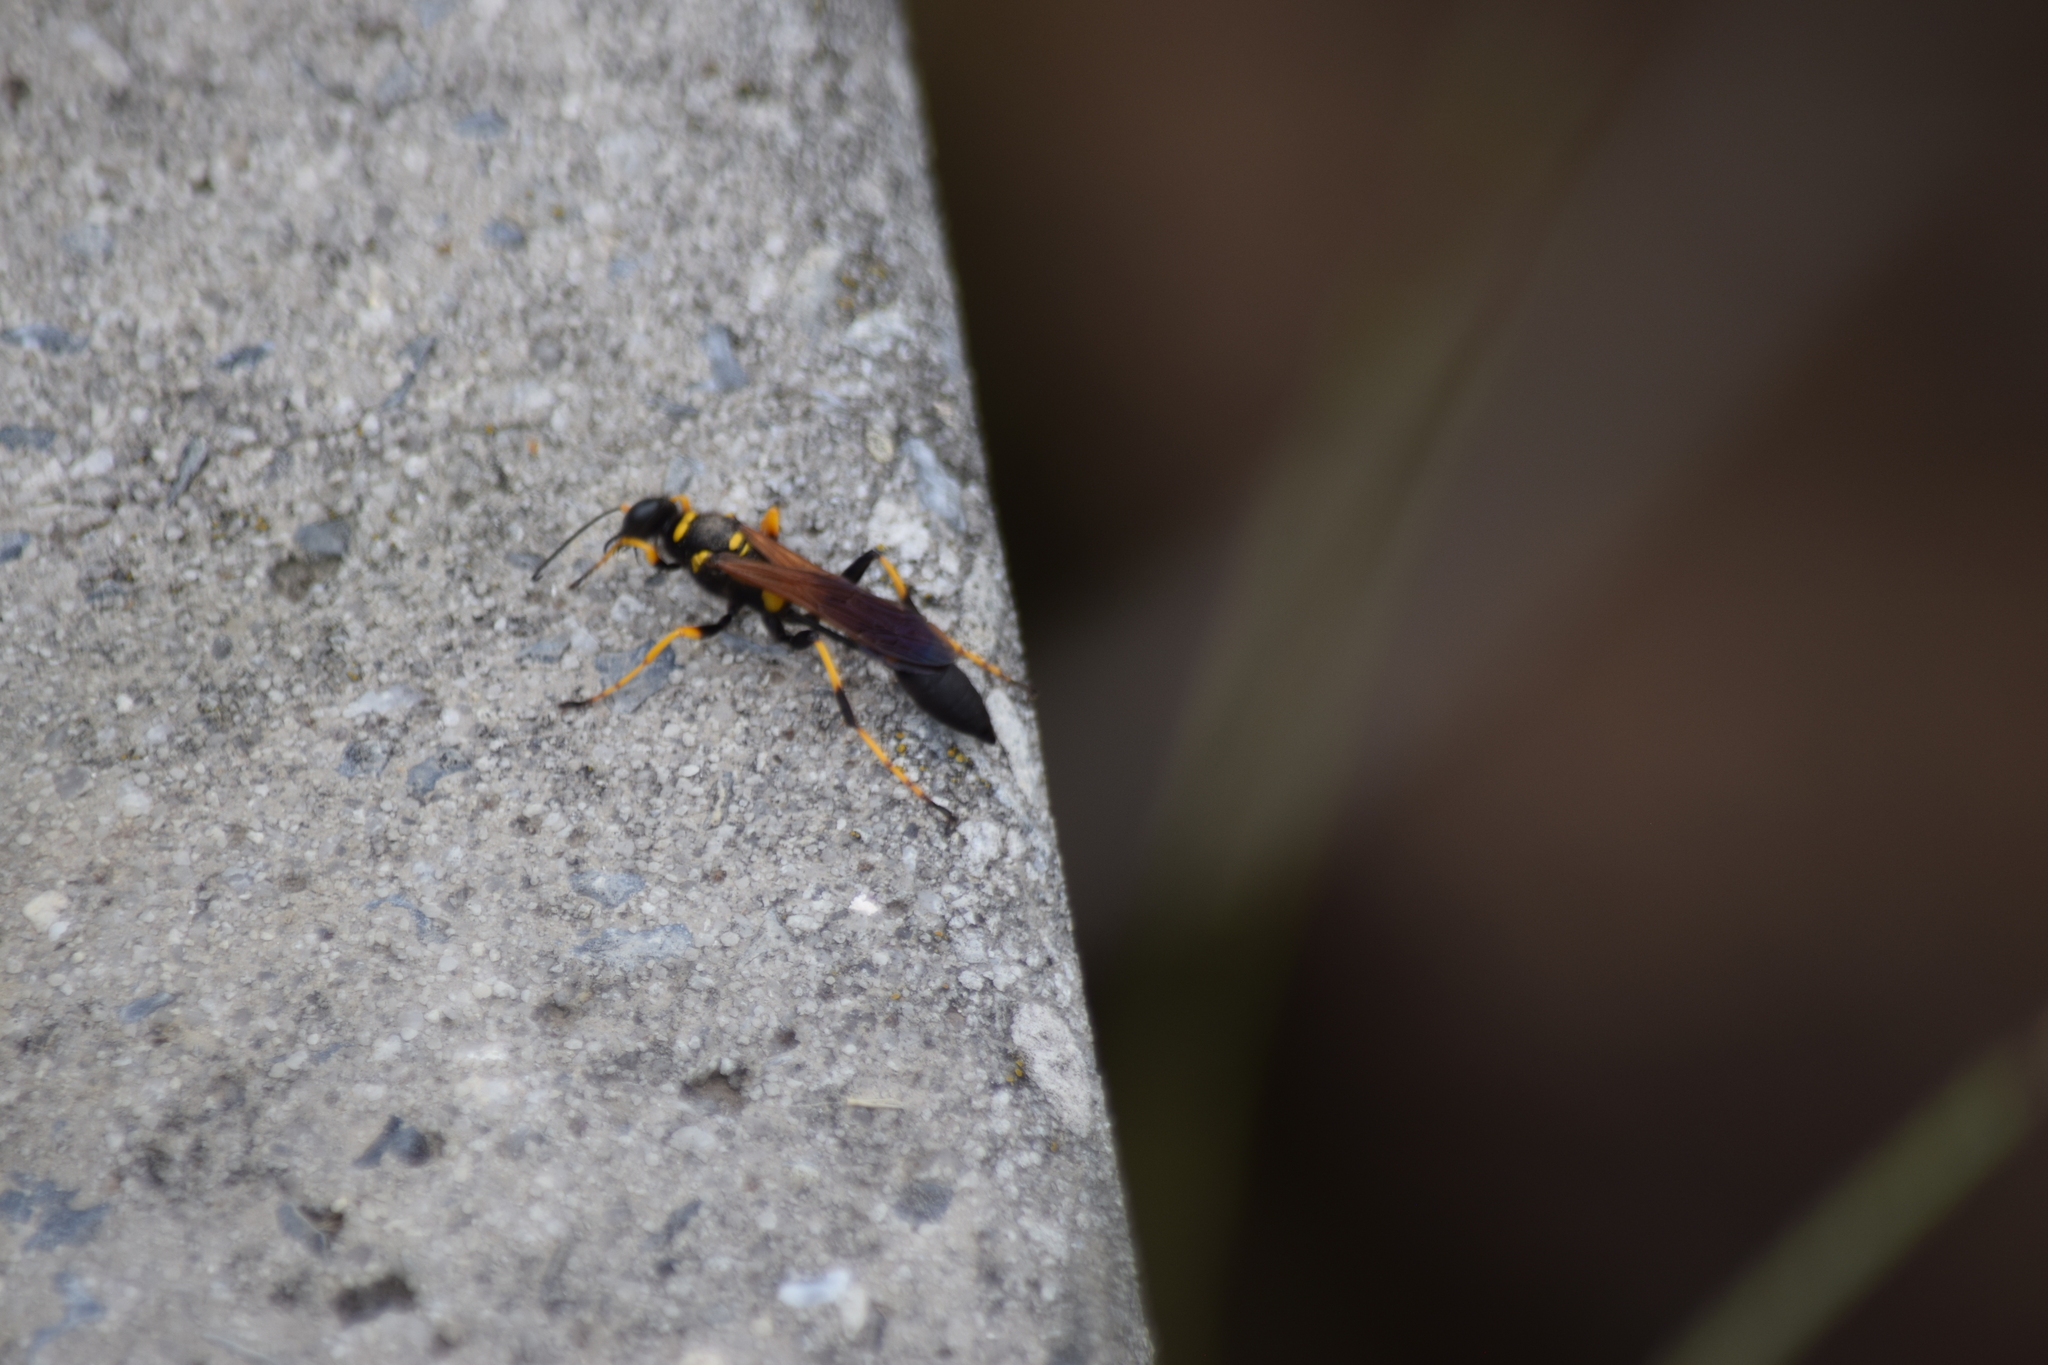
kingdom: Animalia
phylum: Arthropoda
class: Insecta
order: Hymenoptera
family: Sphecidae
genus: Sceliphron
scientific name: Sceliphron caementarium
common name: Mud dauber
